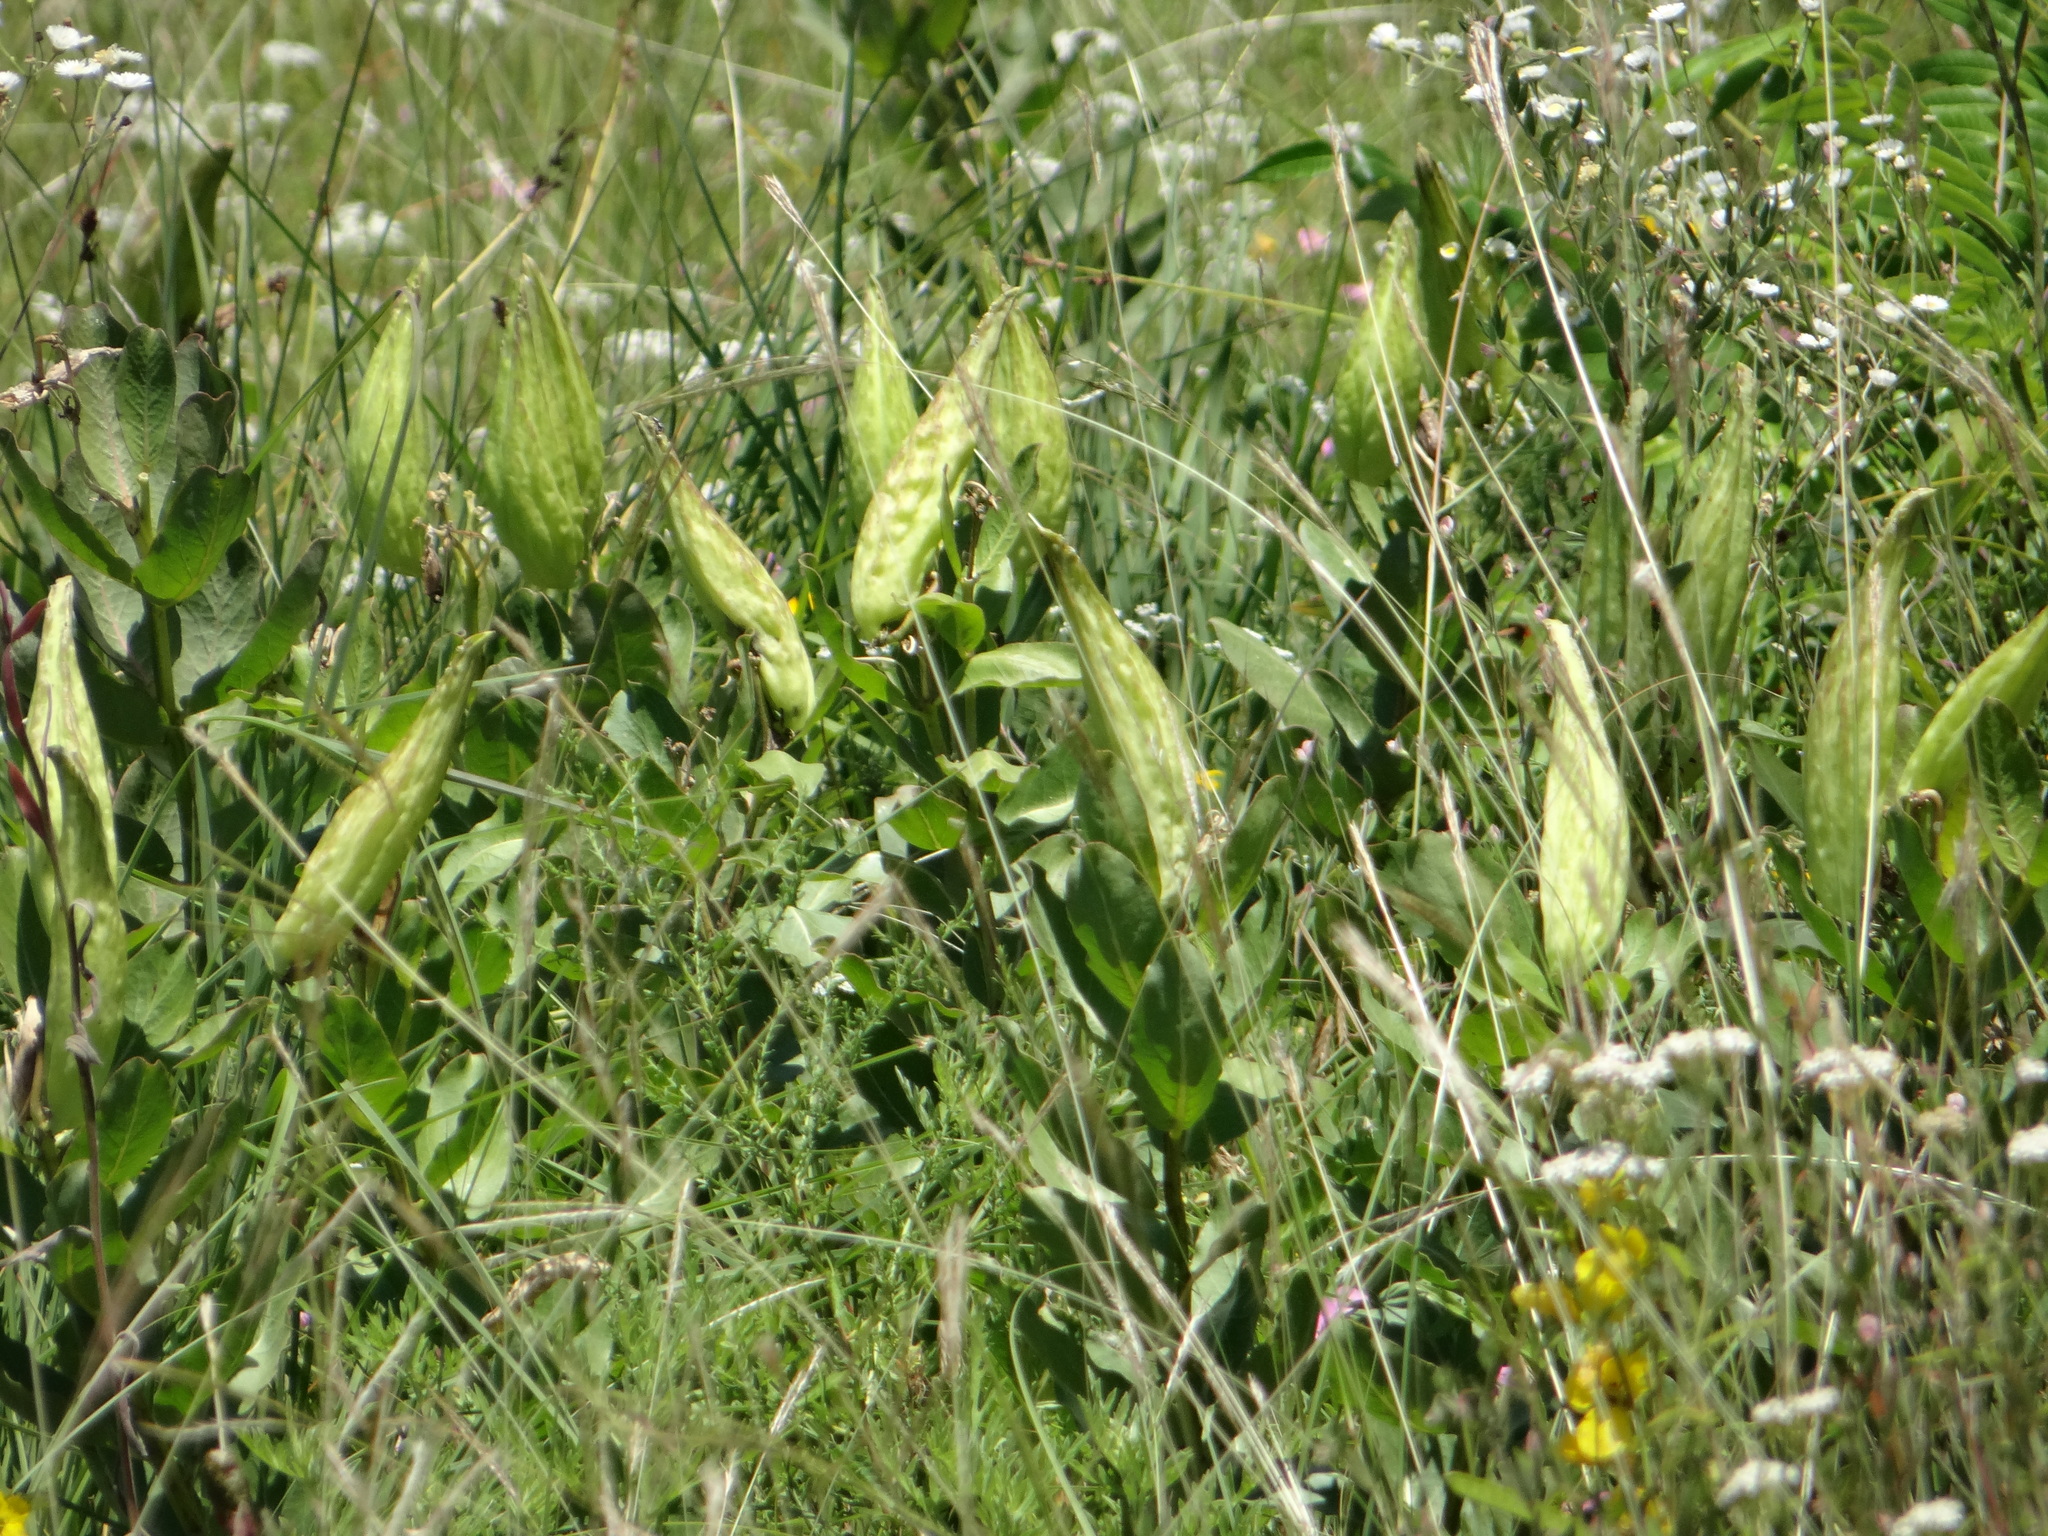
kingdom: Plantae
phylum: Tracheophyta
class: Magnoliopsida
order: Gentianales
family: Apocynaceae
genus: Asclepias
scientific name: Asclepias viridis
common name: Antelope-horns
